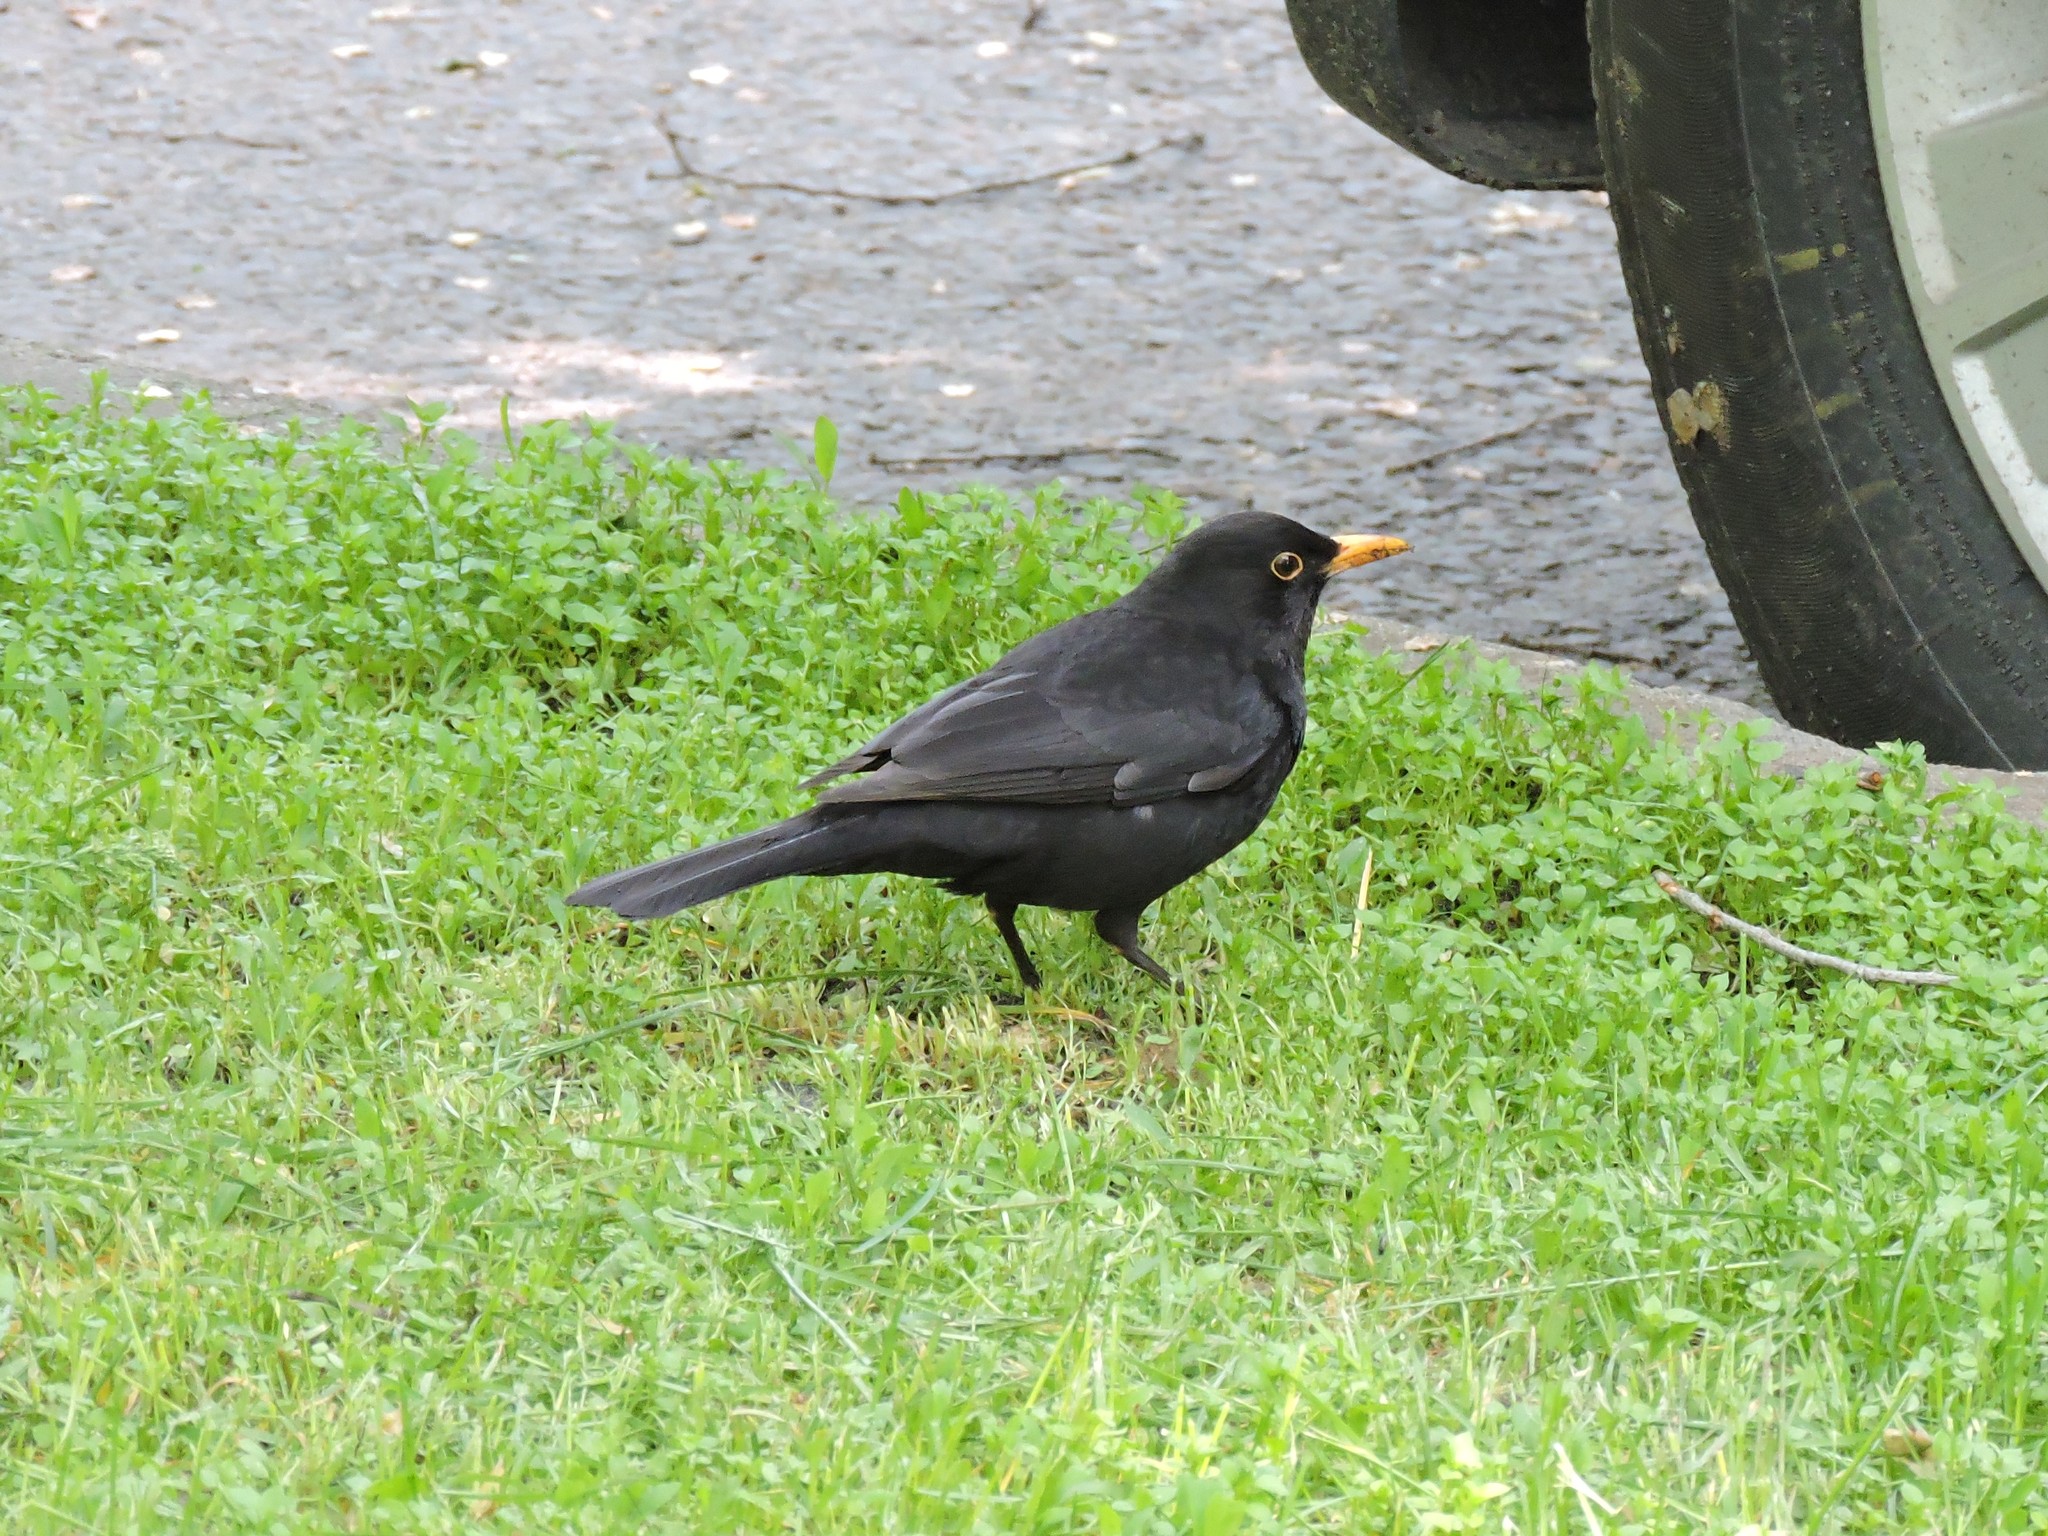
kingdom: Animalia
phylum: Chordata
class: Aves
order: Passeriformes
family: Turdidae
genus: Turdus
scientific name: Turdus merula
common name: Common blackbird
